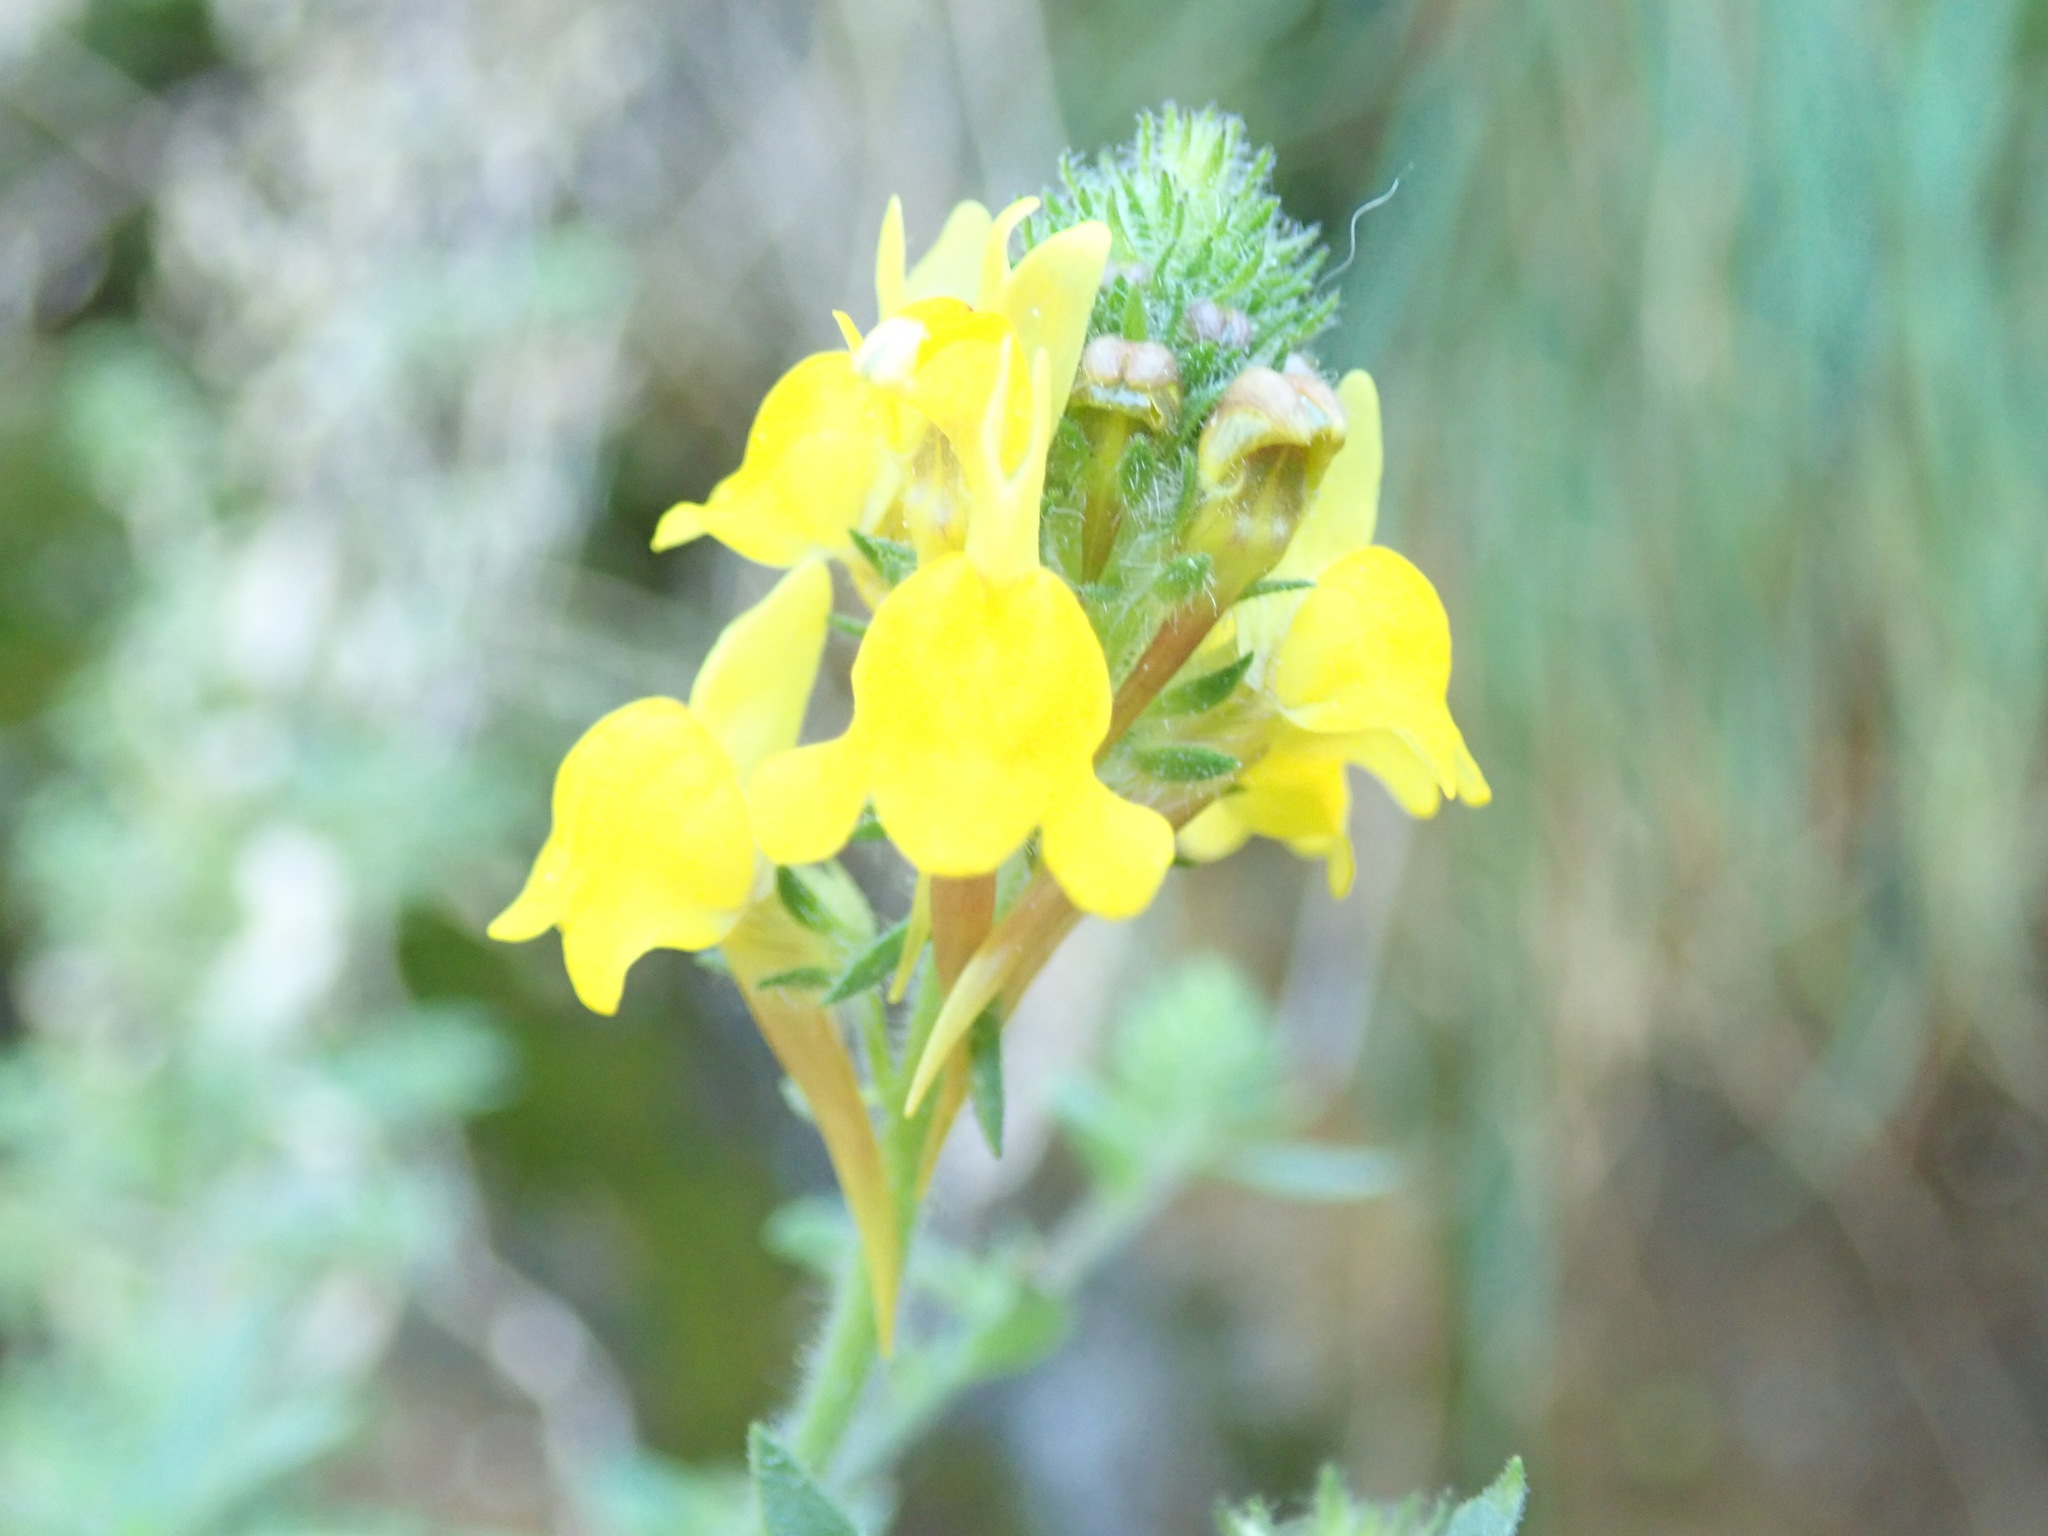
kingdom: Plantae
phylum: Tracheophyta
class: Magnoliopsida
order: Lamiales
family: Plantaginaceae
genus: Linaria
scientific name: Linaria saxatilis
